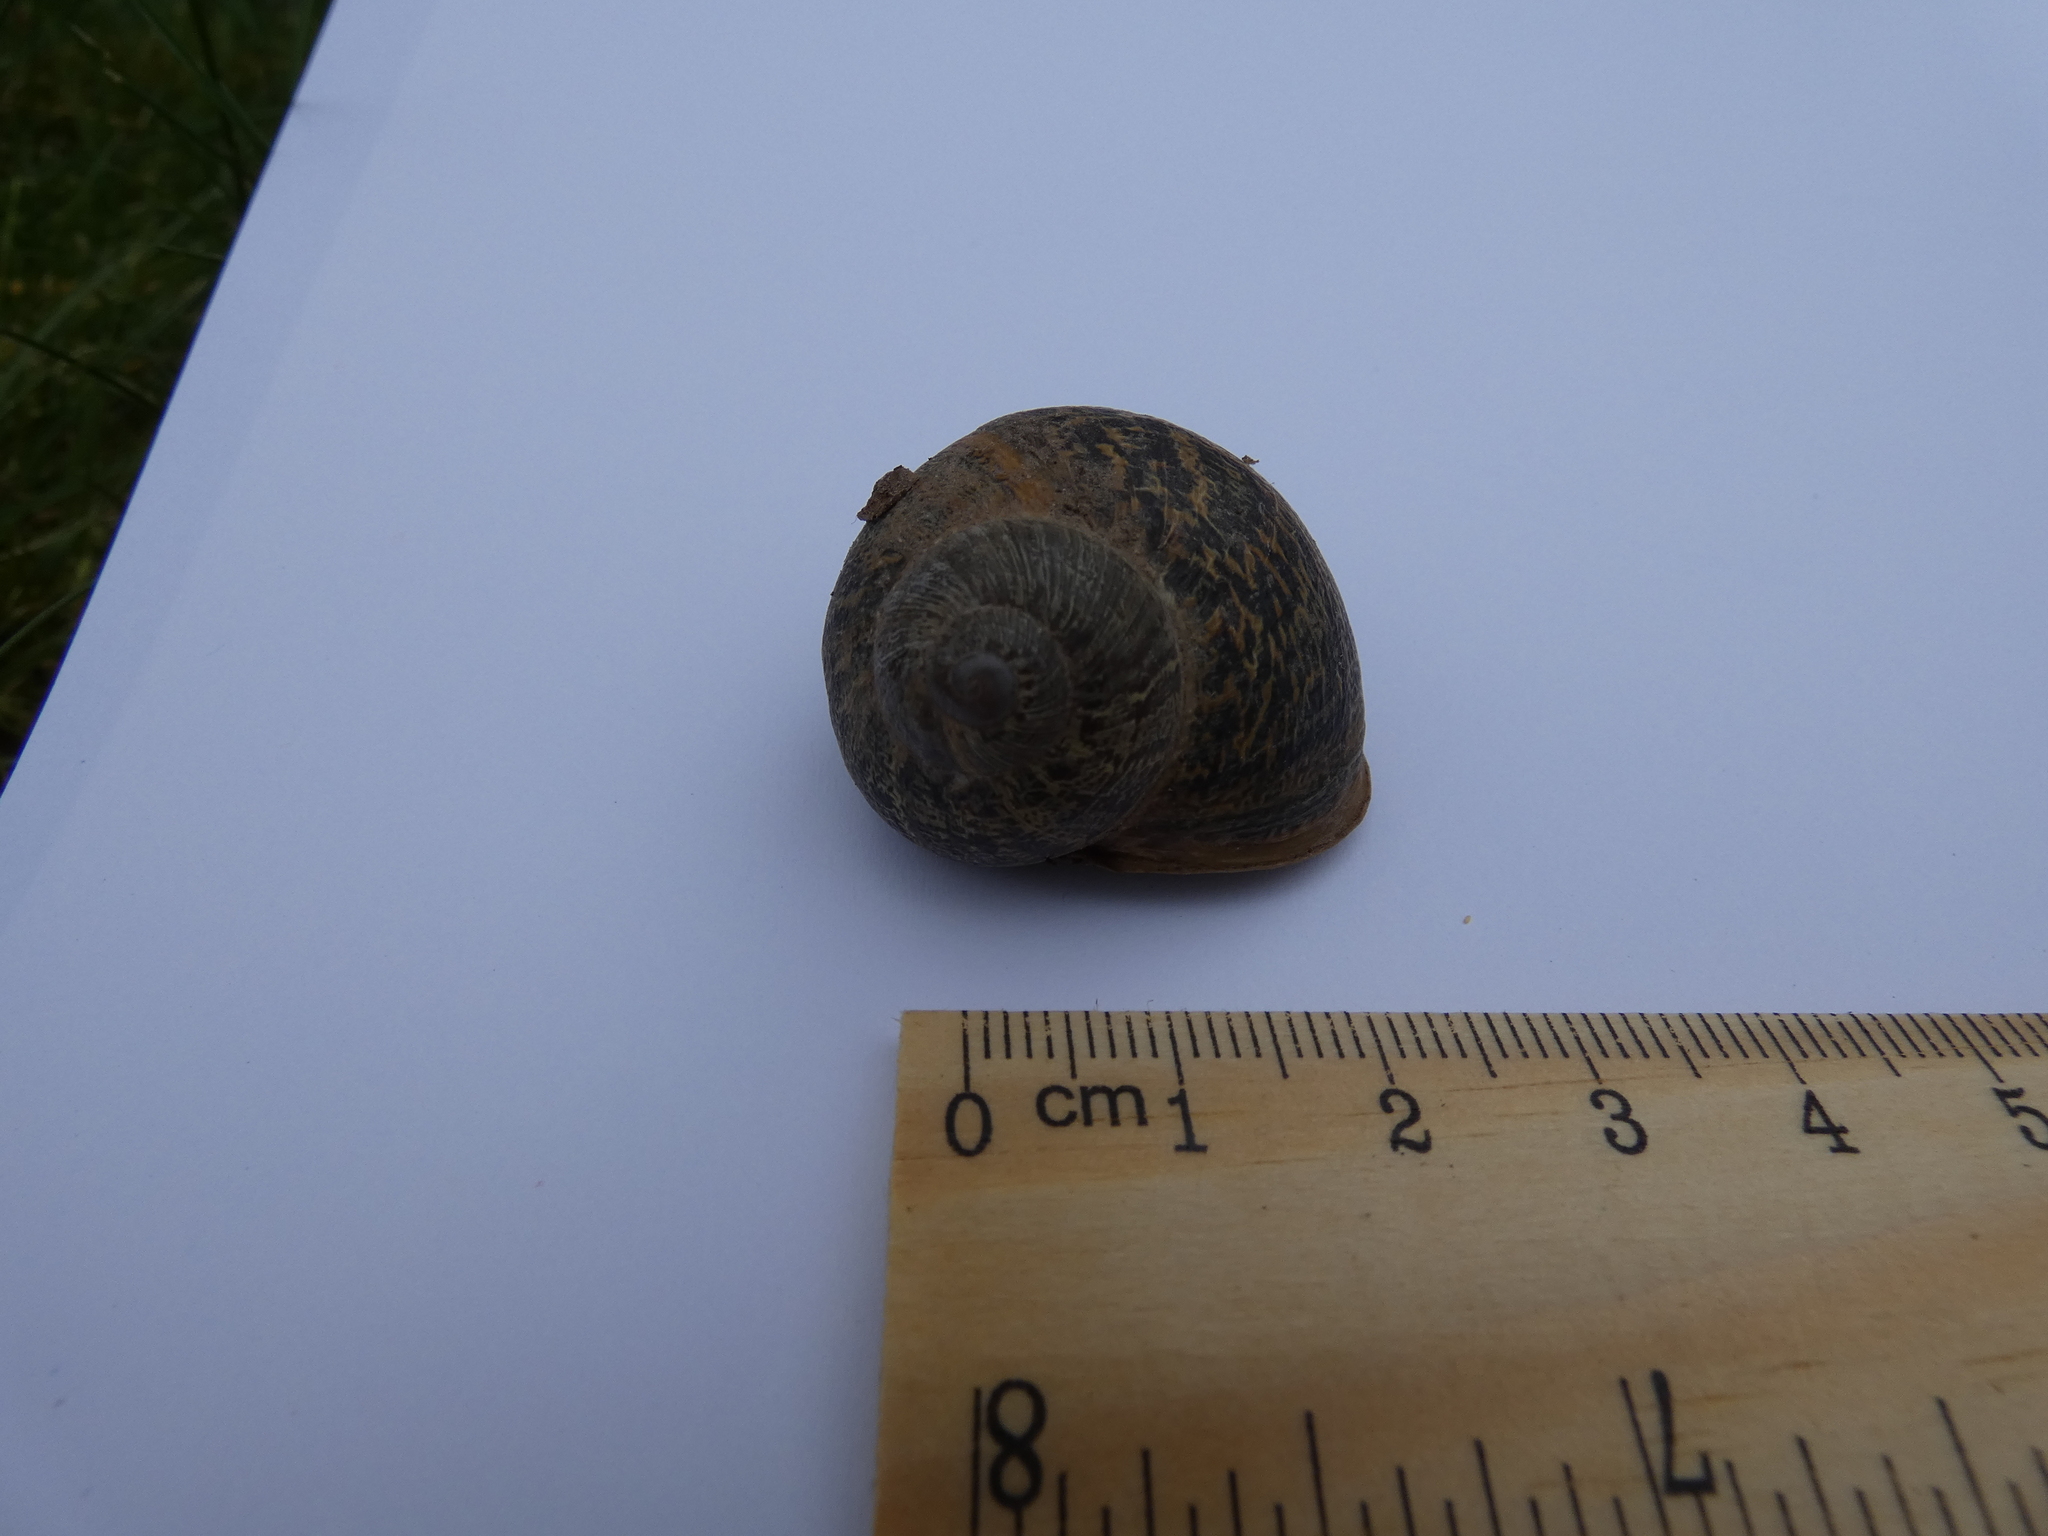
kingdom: Animalia
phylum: Mollusca
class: Gastropoda
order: Stylommatophora
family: Helicidae
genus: Cornu
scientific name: Cornu aspersum
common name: Brown garden snail
